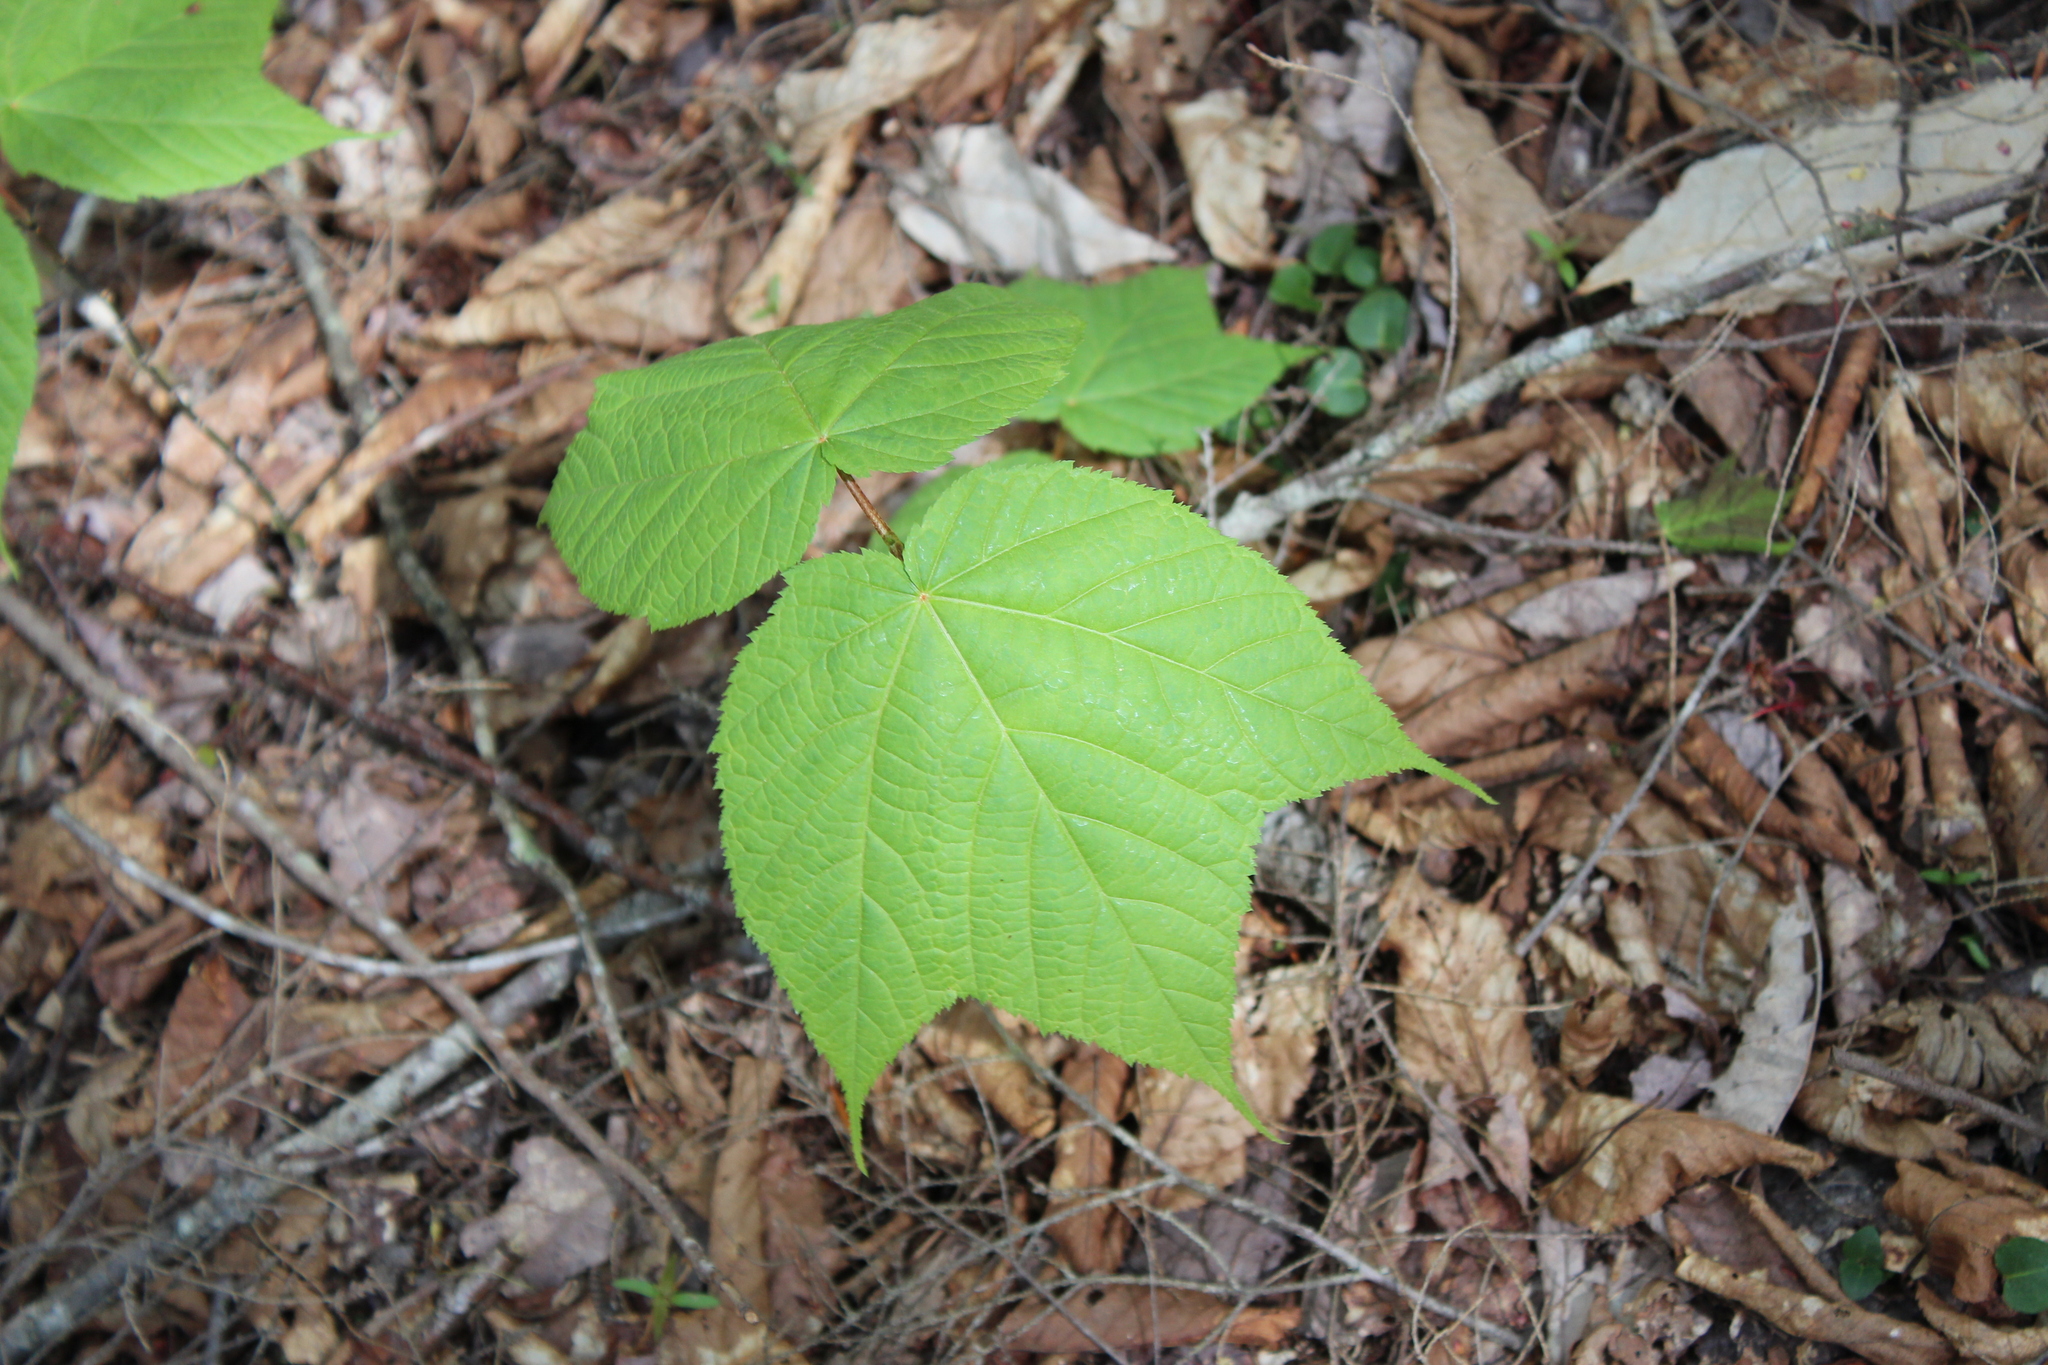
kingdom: Plantae
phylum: Tracheophyta
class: Magnoliopsida
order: Sapindales
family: Sapindaceae
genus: Acer
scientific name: Acer pensylvanicum
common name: Moosewood
